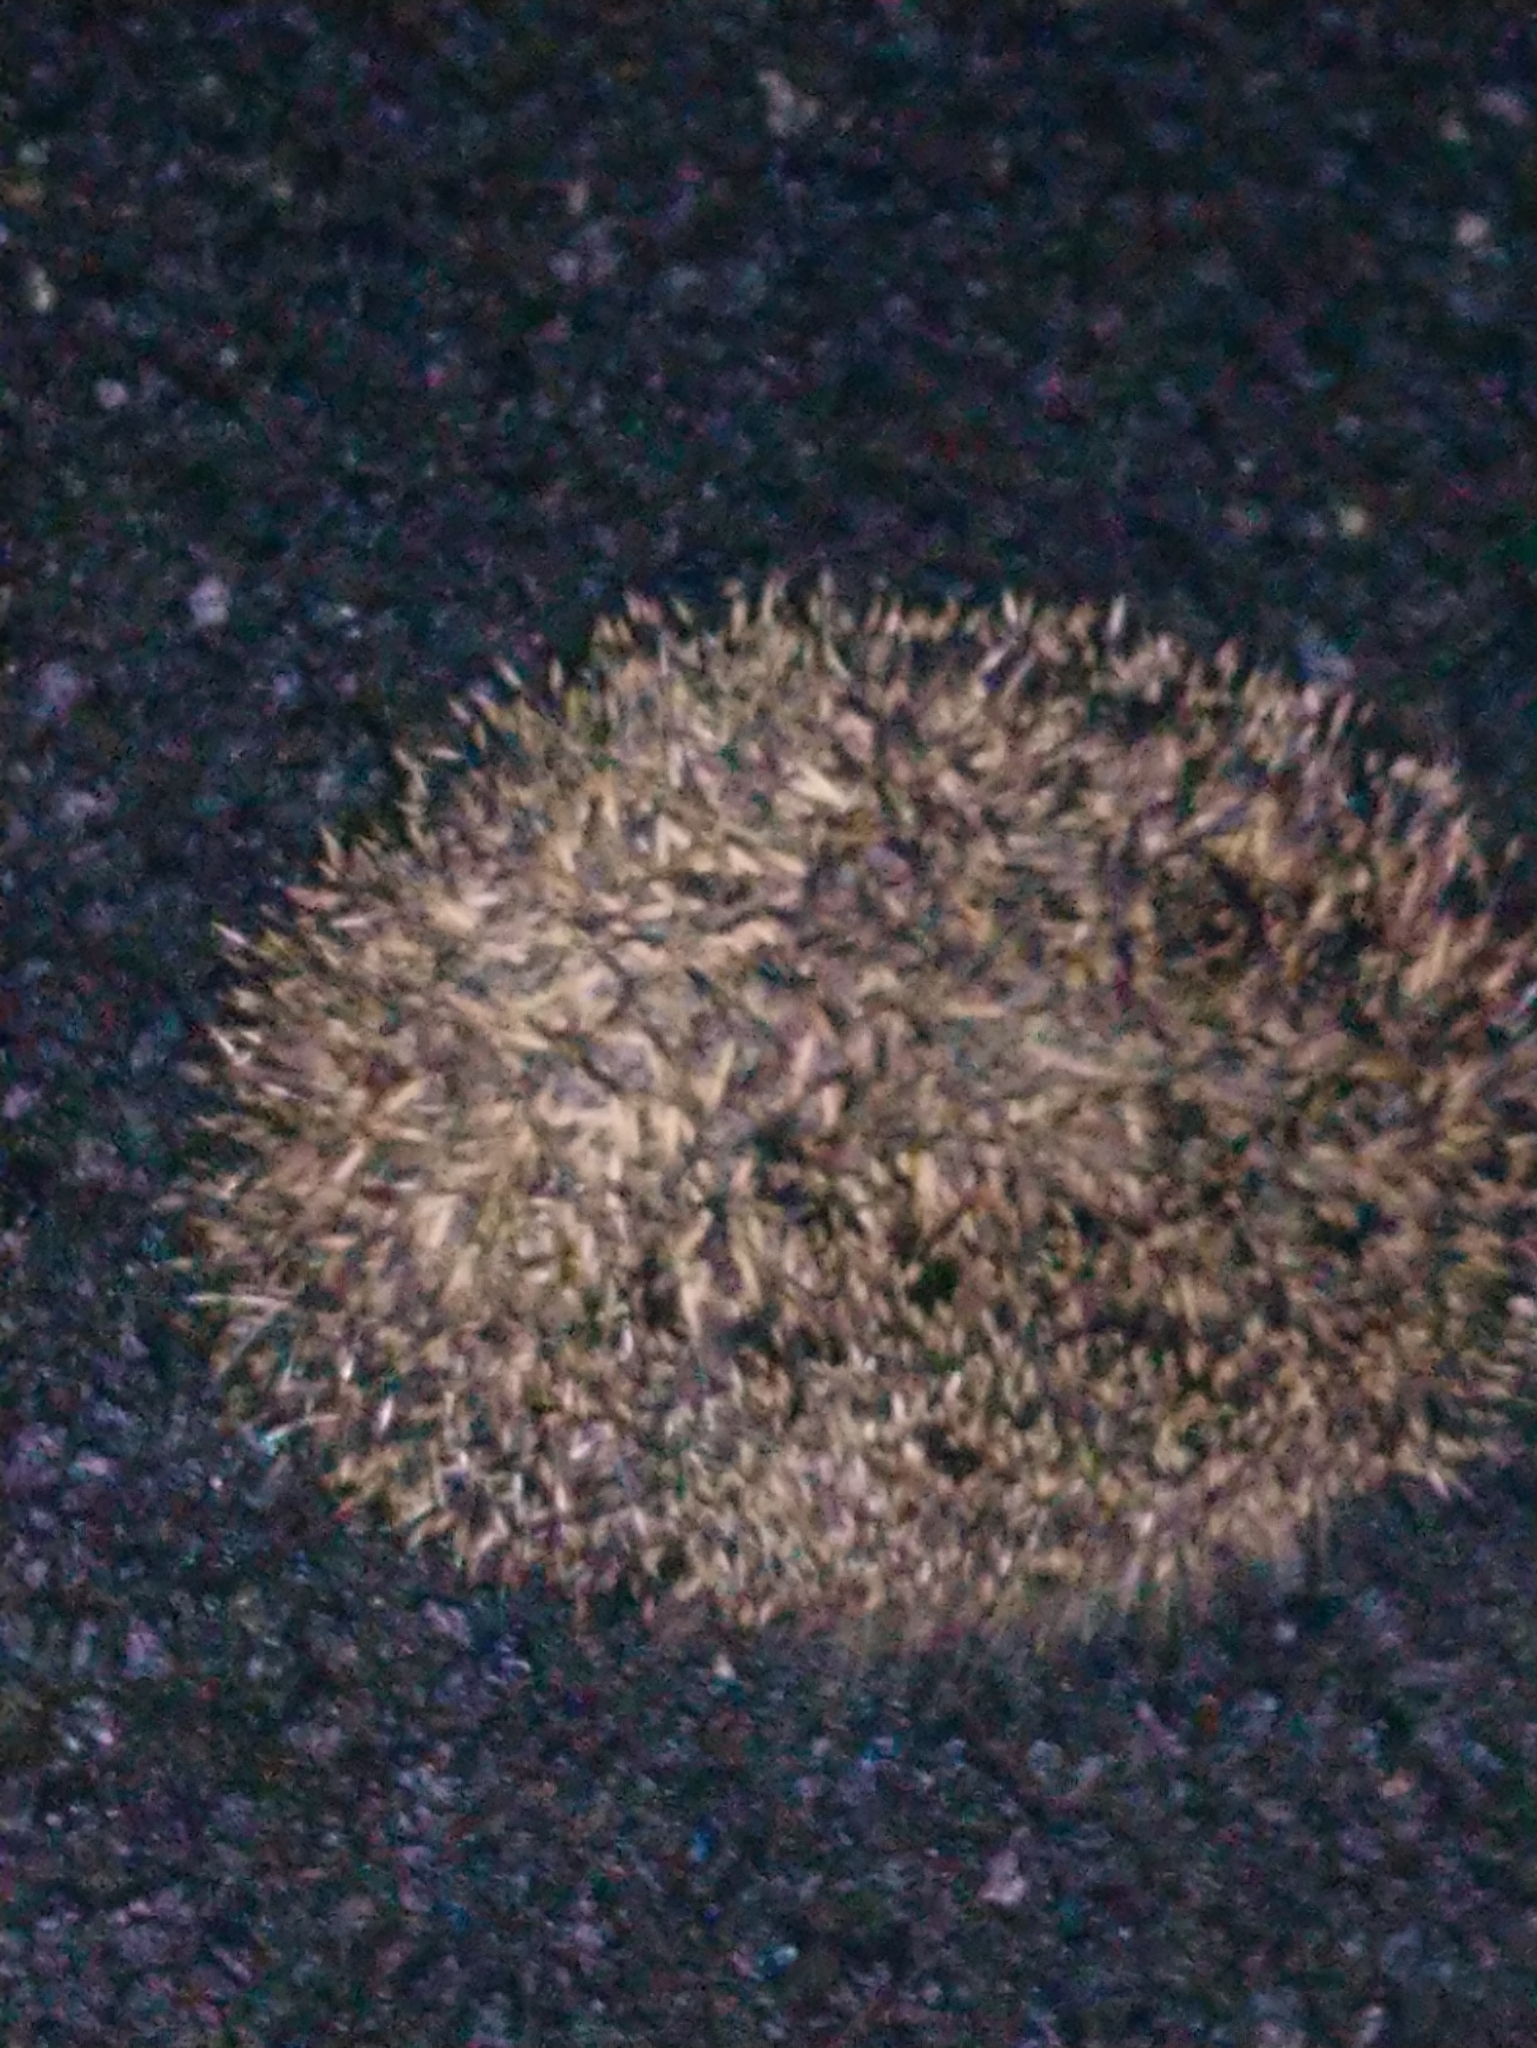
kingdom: Animalia
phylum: Chordata
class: Mammalia
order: Erinaceomorpha
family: Erinaceidae
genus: Erinaceus
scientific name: Erinaceus europaeus
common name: West european hedgehog
